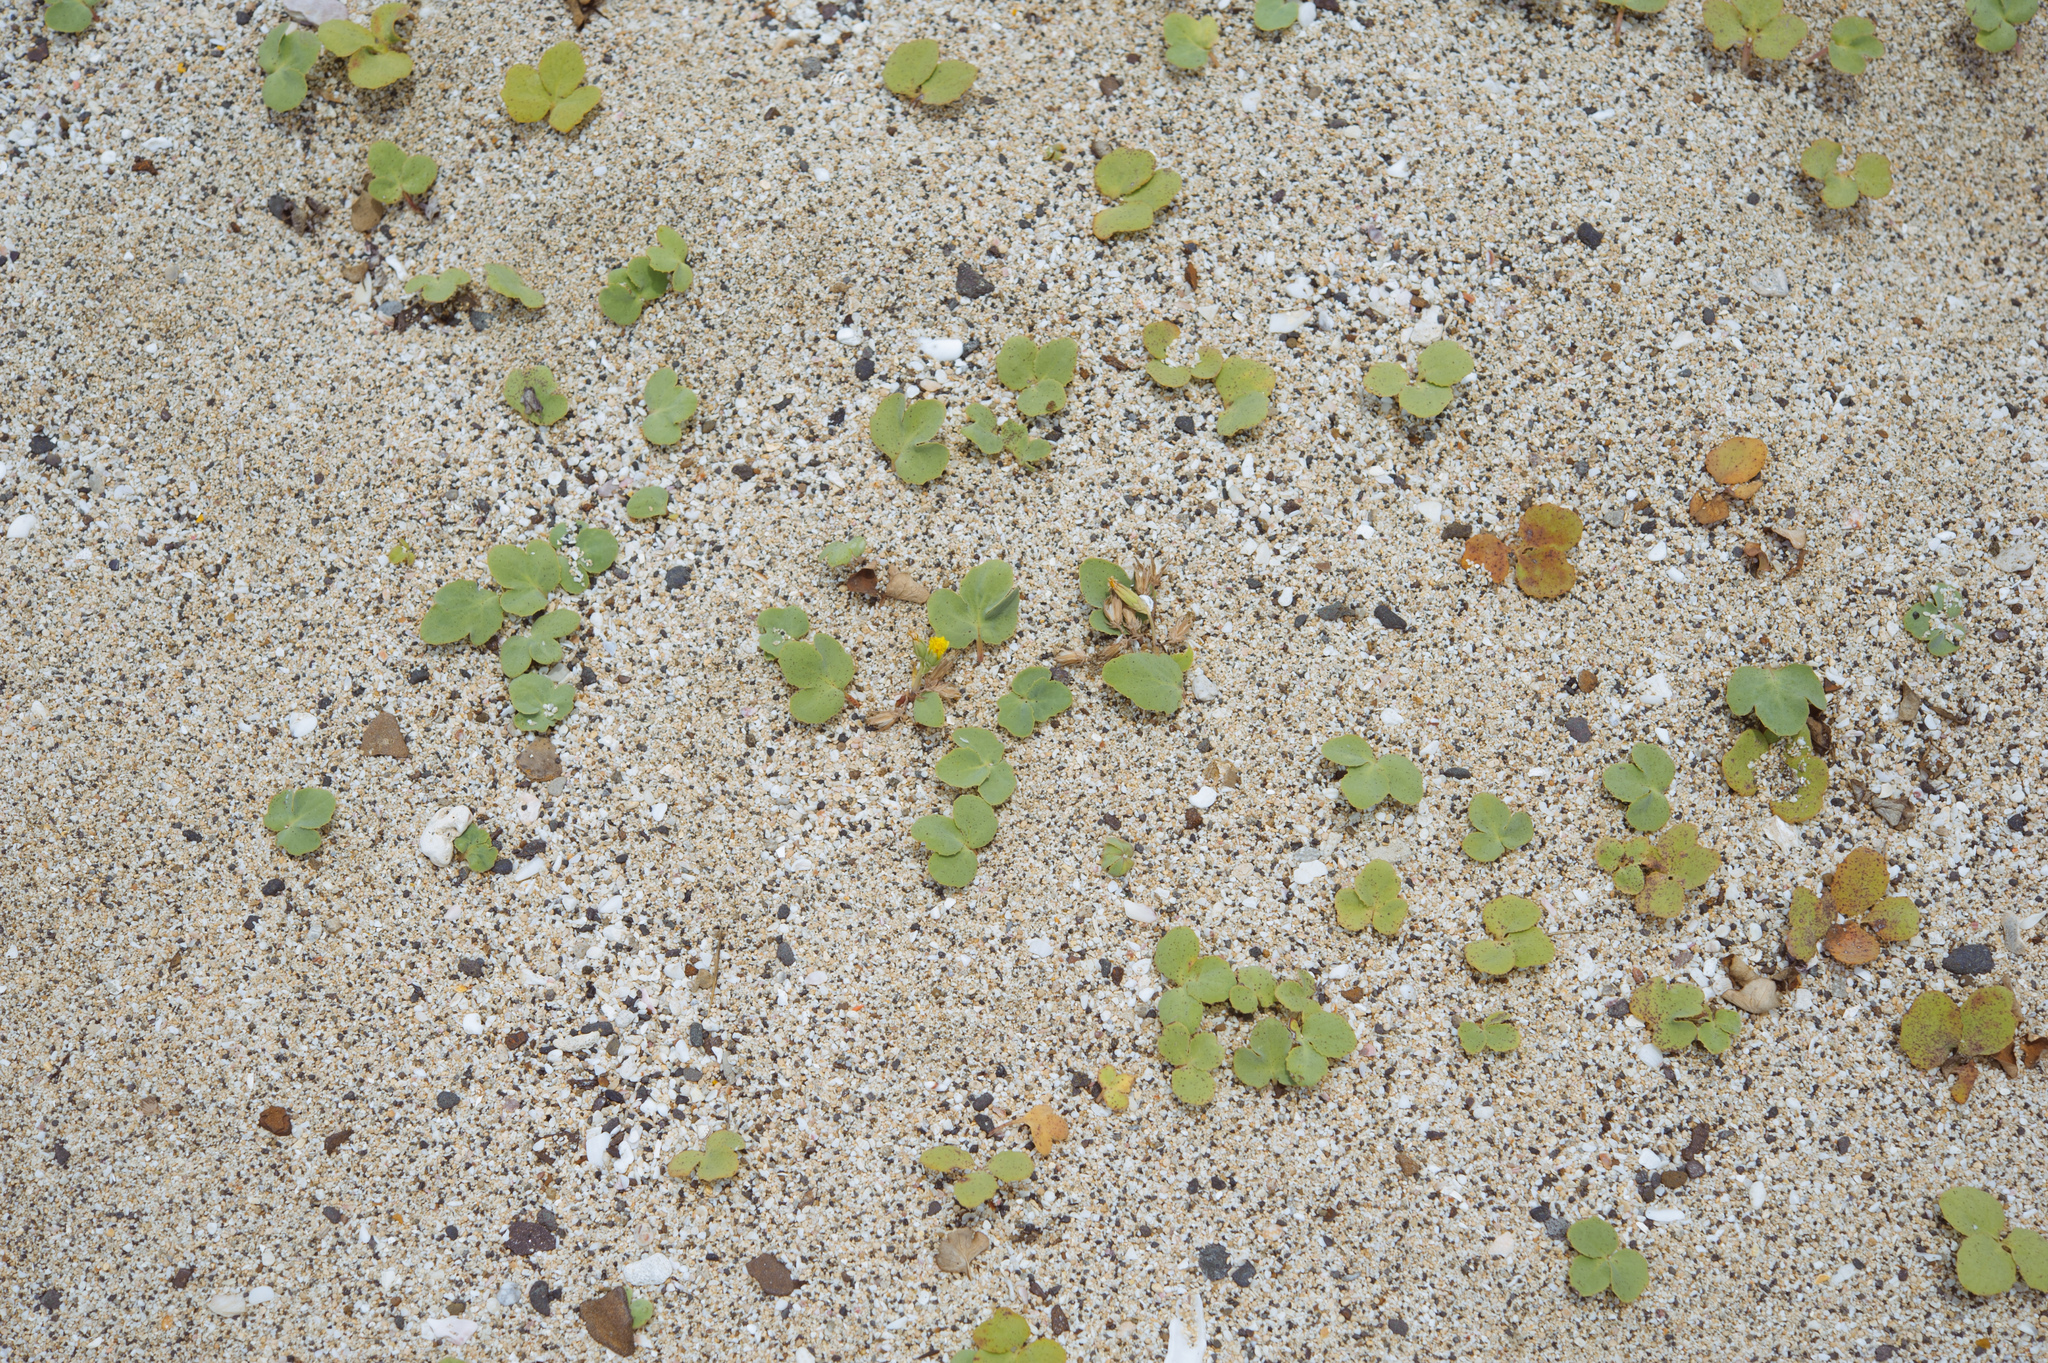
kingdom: Plantae
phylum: Tracheophyta
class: Magnoliopsida
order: Asterales
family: Asteraceae
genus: Ixeris
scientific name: Ixeris repens
